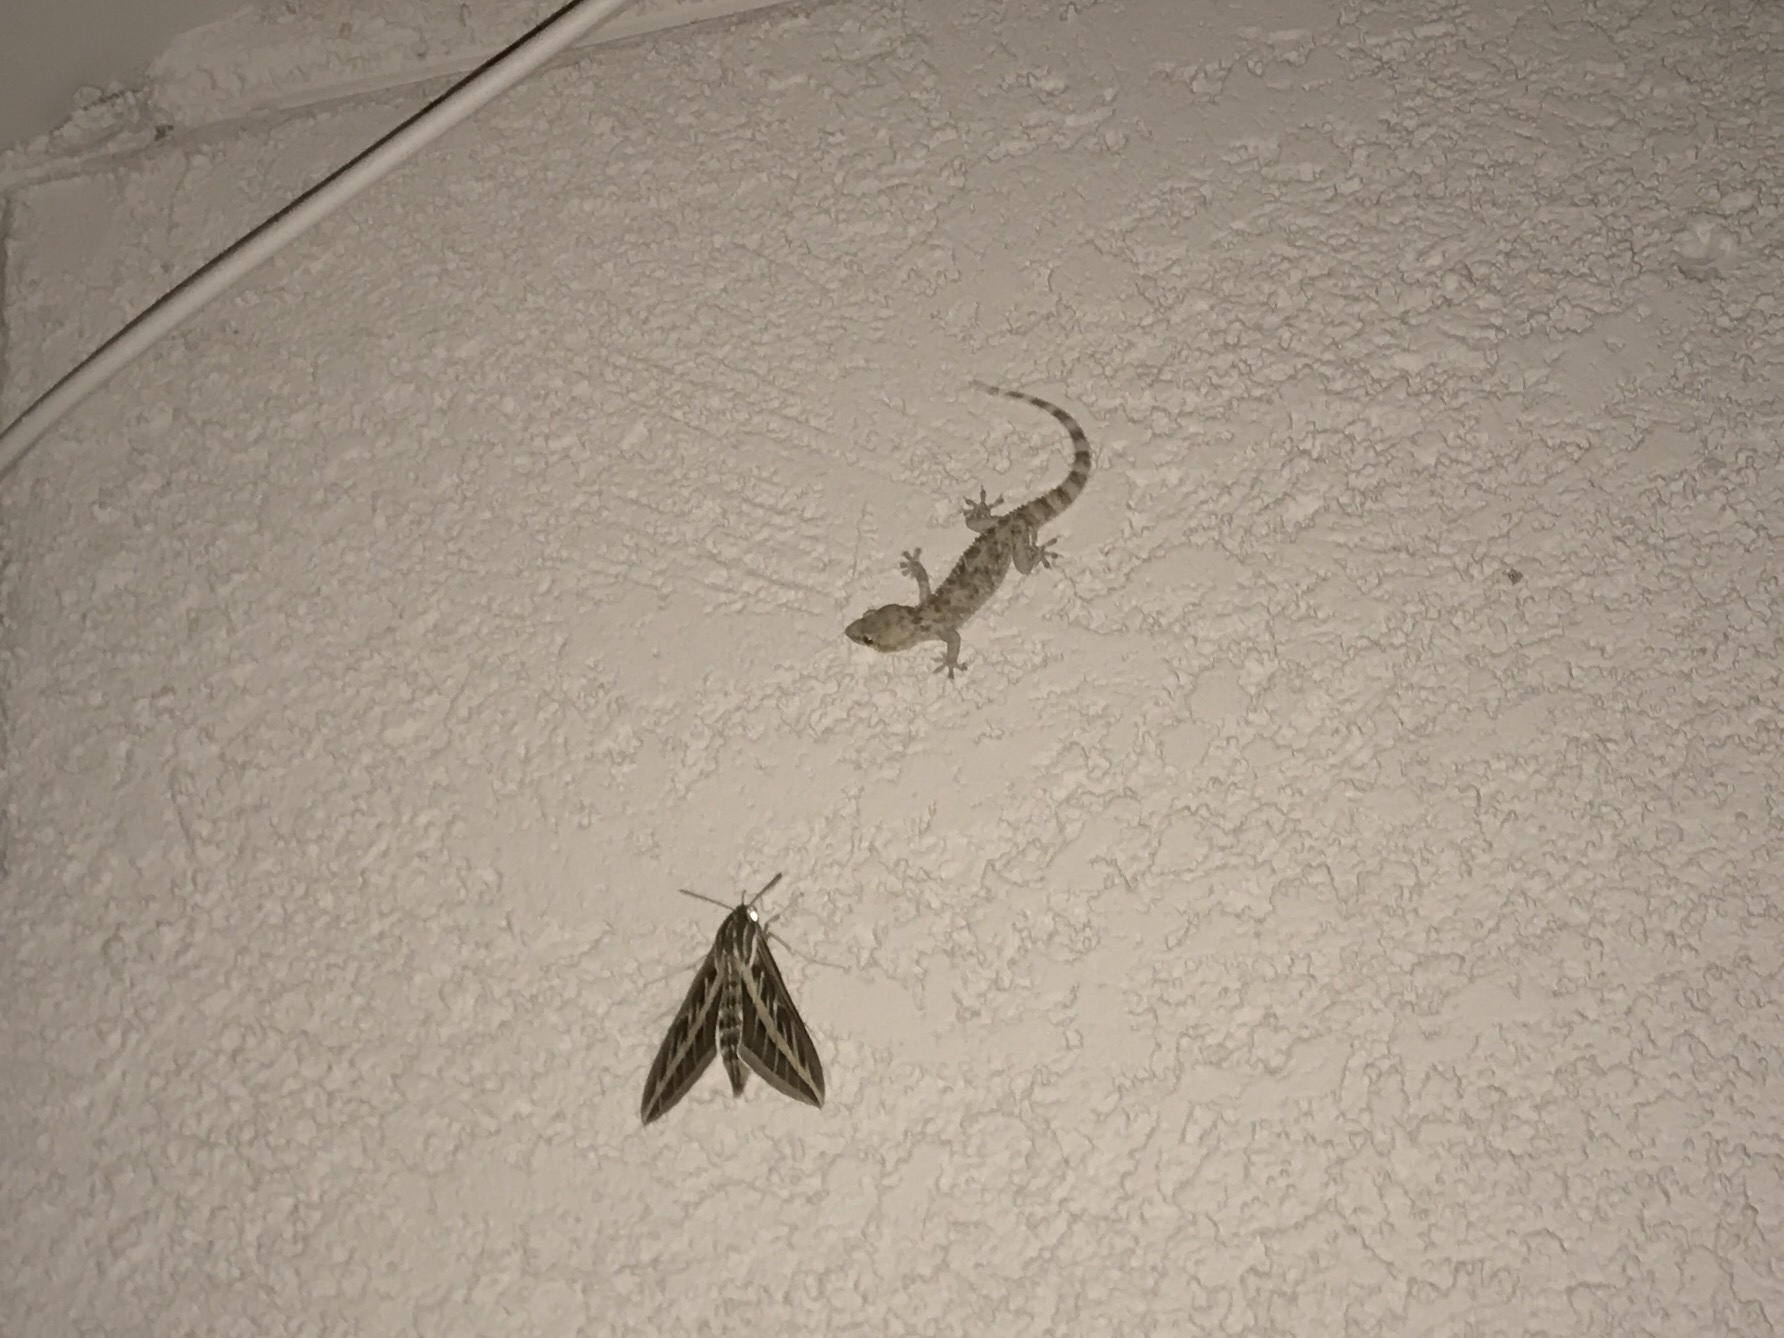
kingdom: Animalia
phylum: Arthropoda
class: Insecta
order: Lepidoptera
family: Sphingidae
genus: Hyles
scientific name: Hyles lineata
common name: White-lined sphinx
